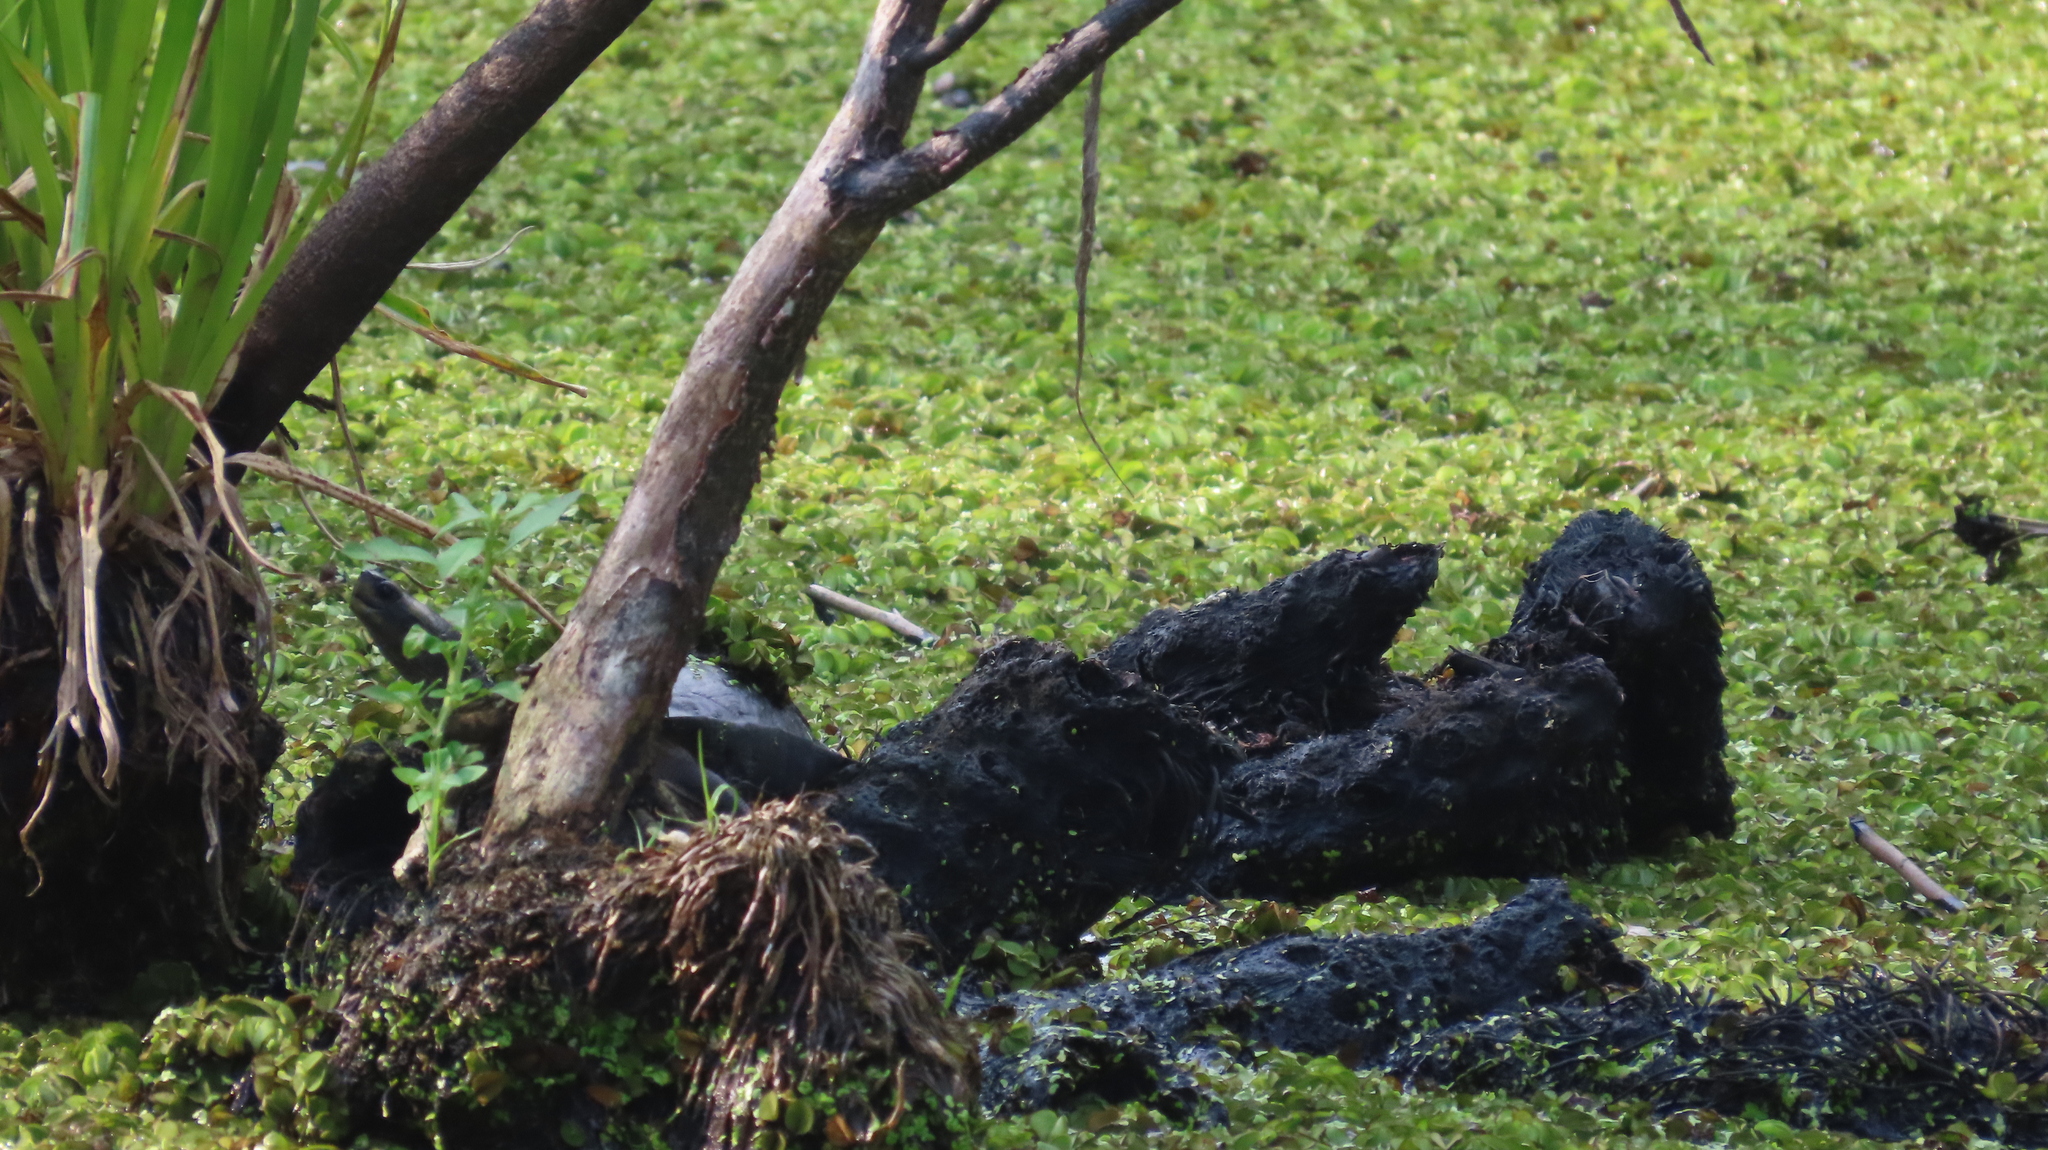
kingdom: Animalia
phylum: Chordata
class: Testudines
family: Geoemydidae
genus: Melanochelys
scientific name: Melanochelys trijuga
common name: Indian black turtle
